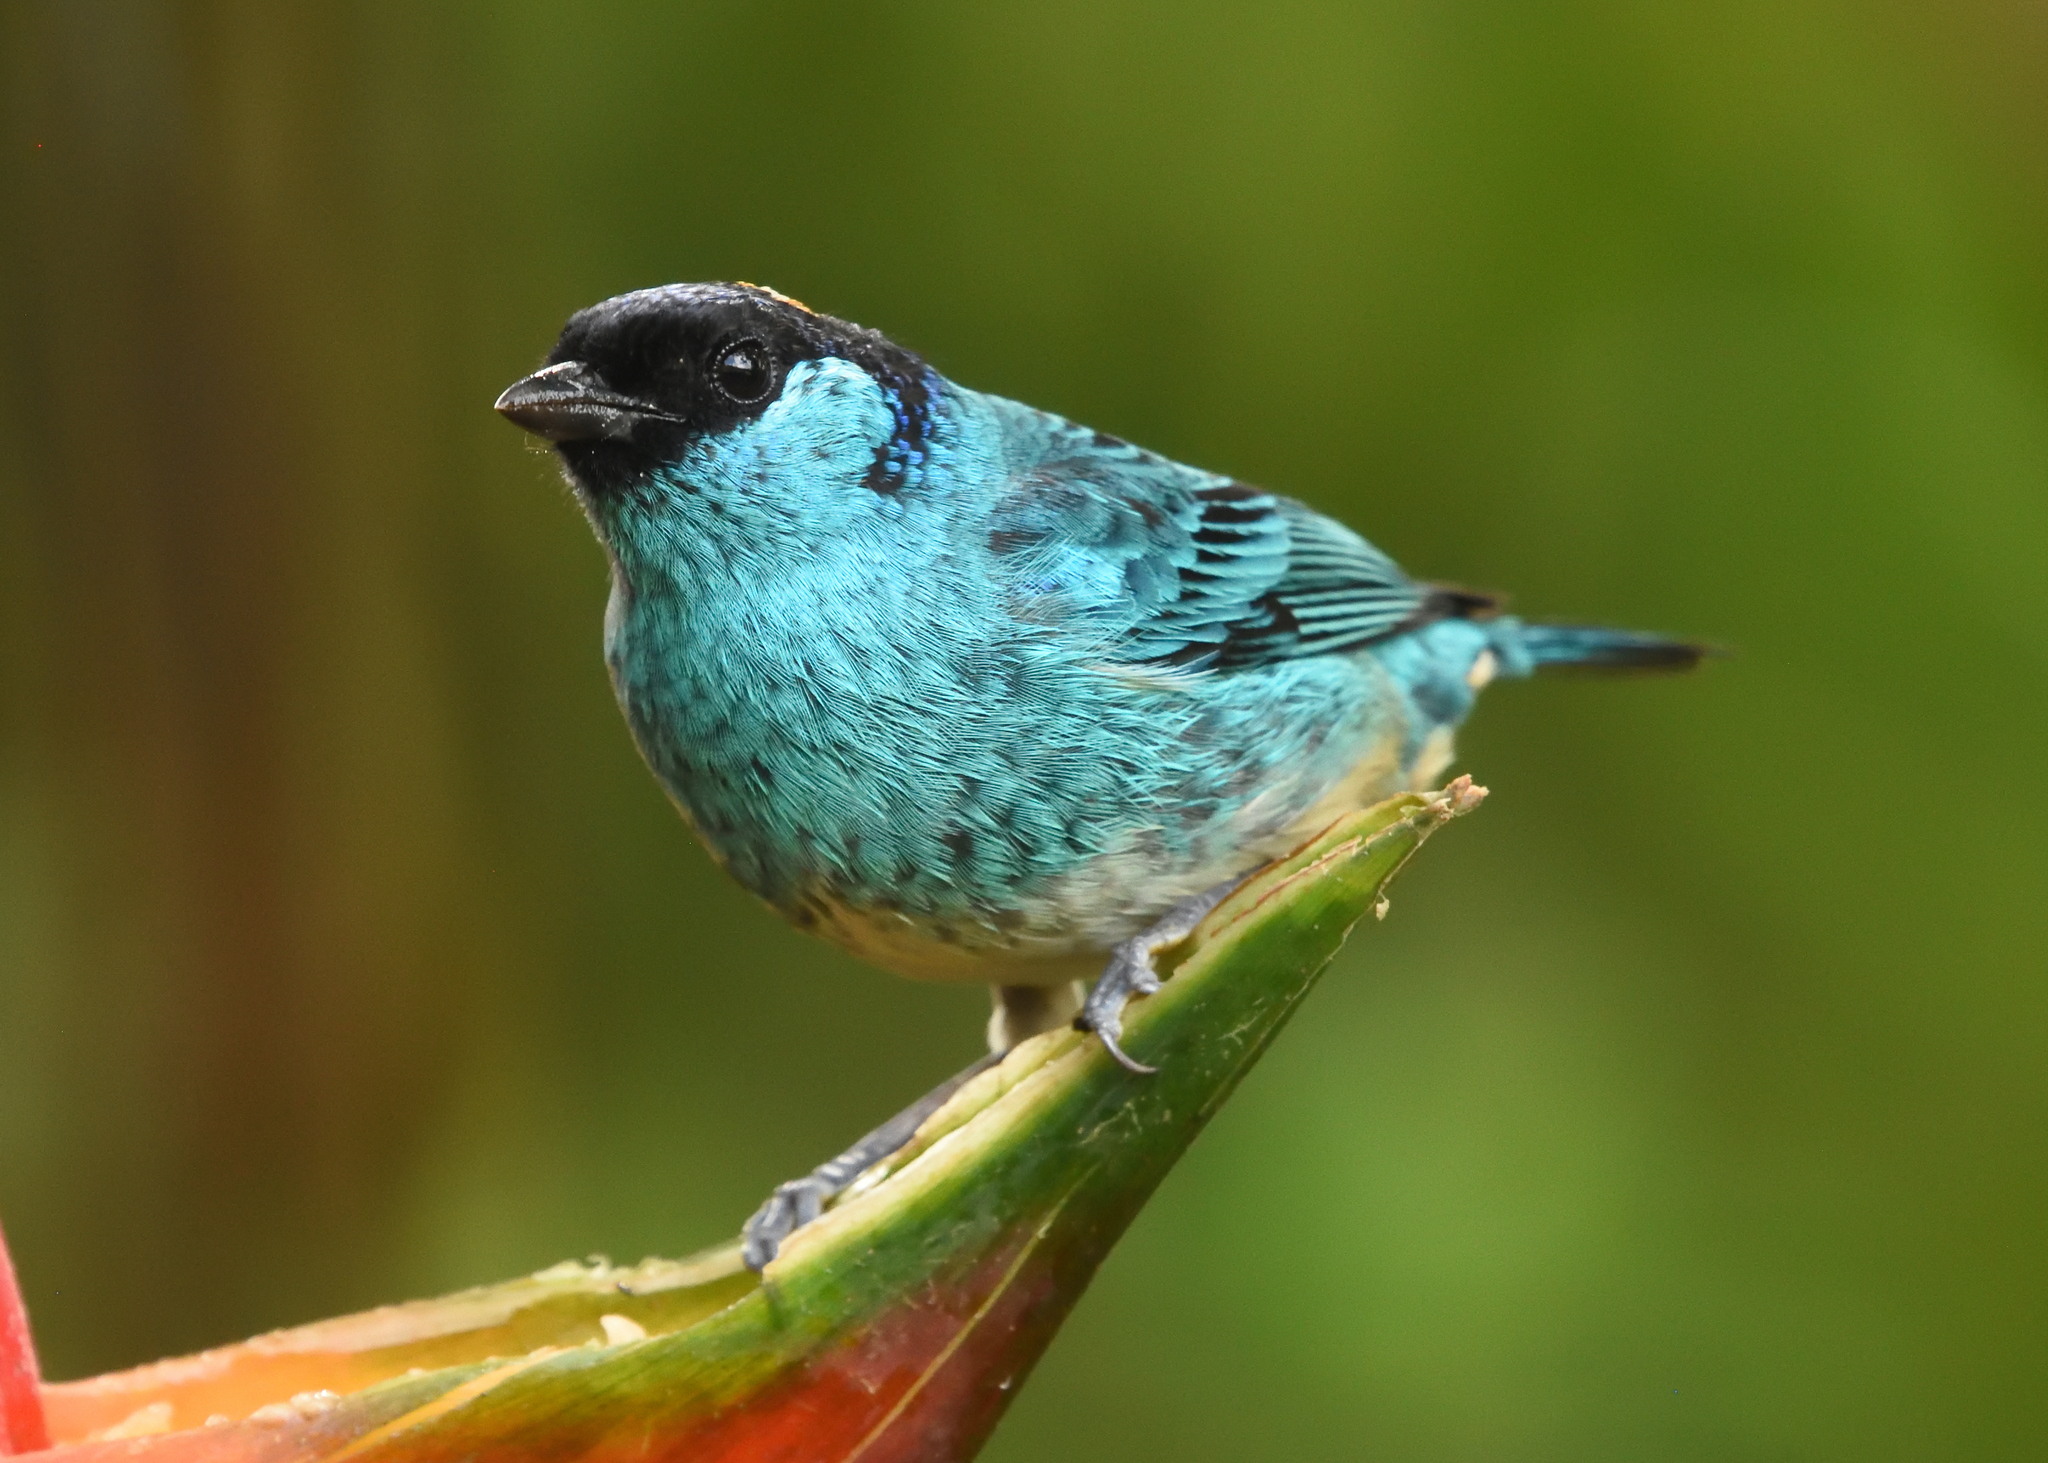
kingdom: Animalia
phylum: Chordata
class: Aves
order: Passeriformes
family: Thraupidae
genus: Chalcothraupis
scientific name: Chalcothraupis ruficervix
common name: Golden-naped tanager
